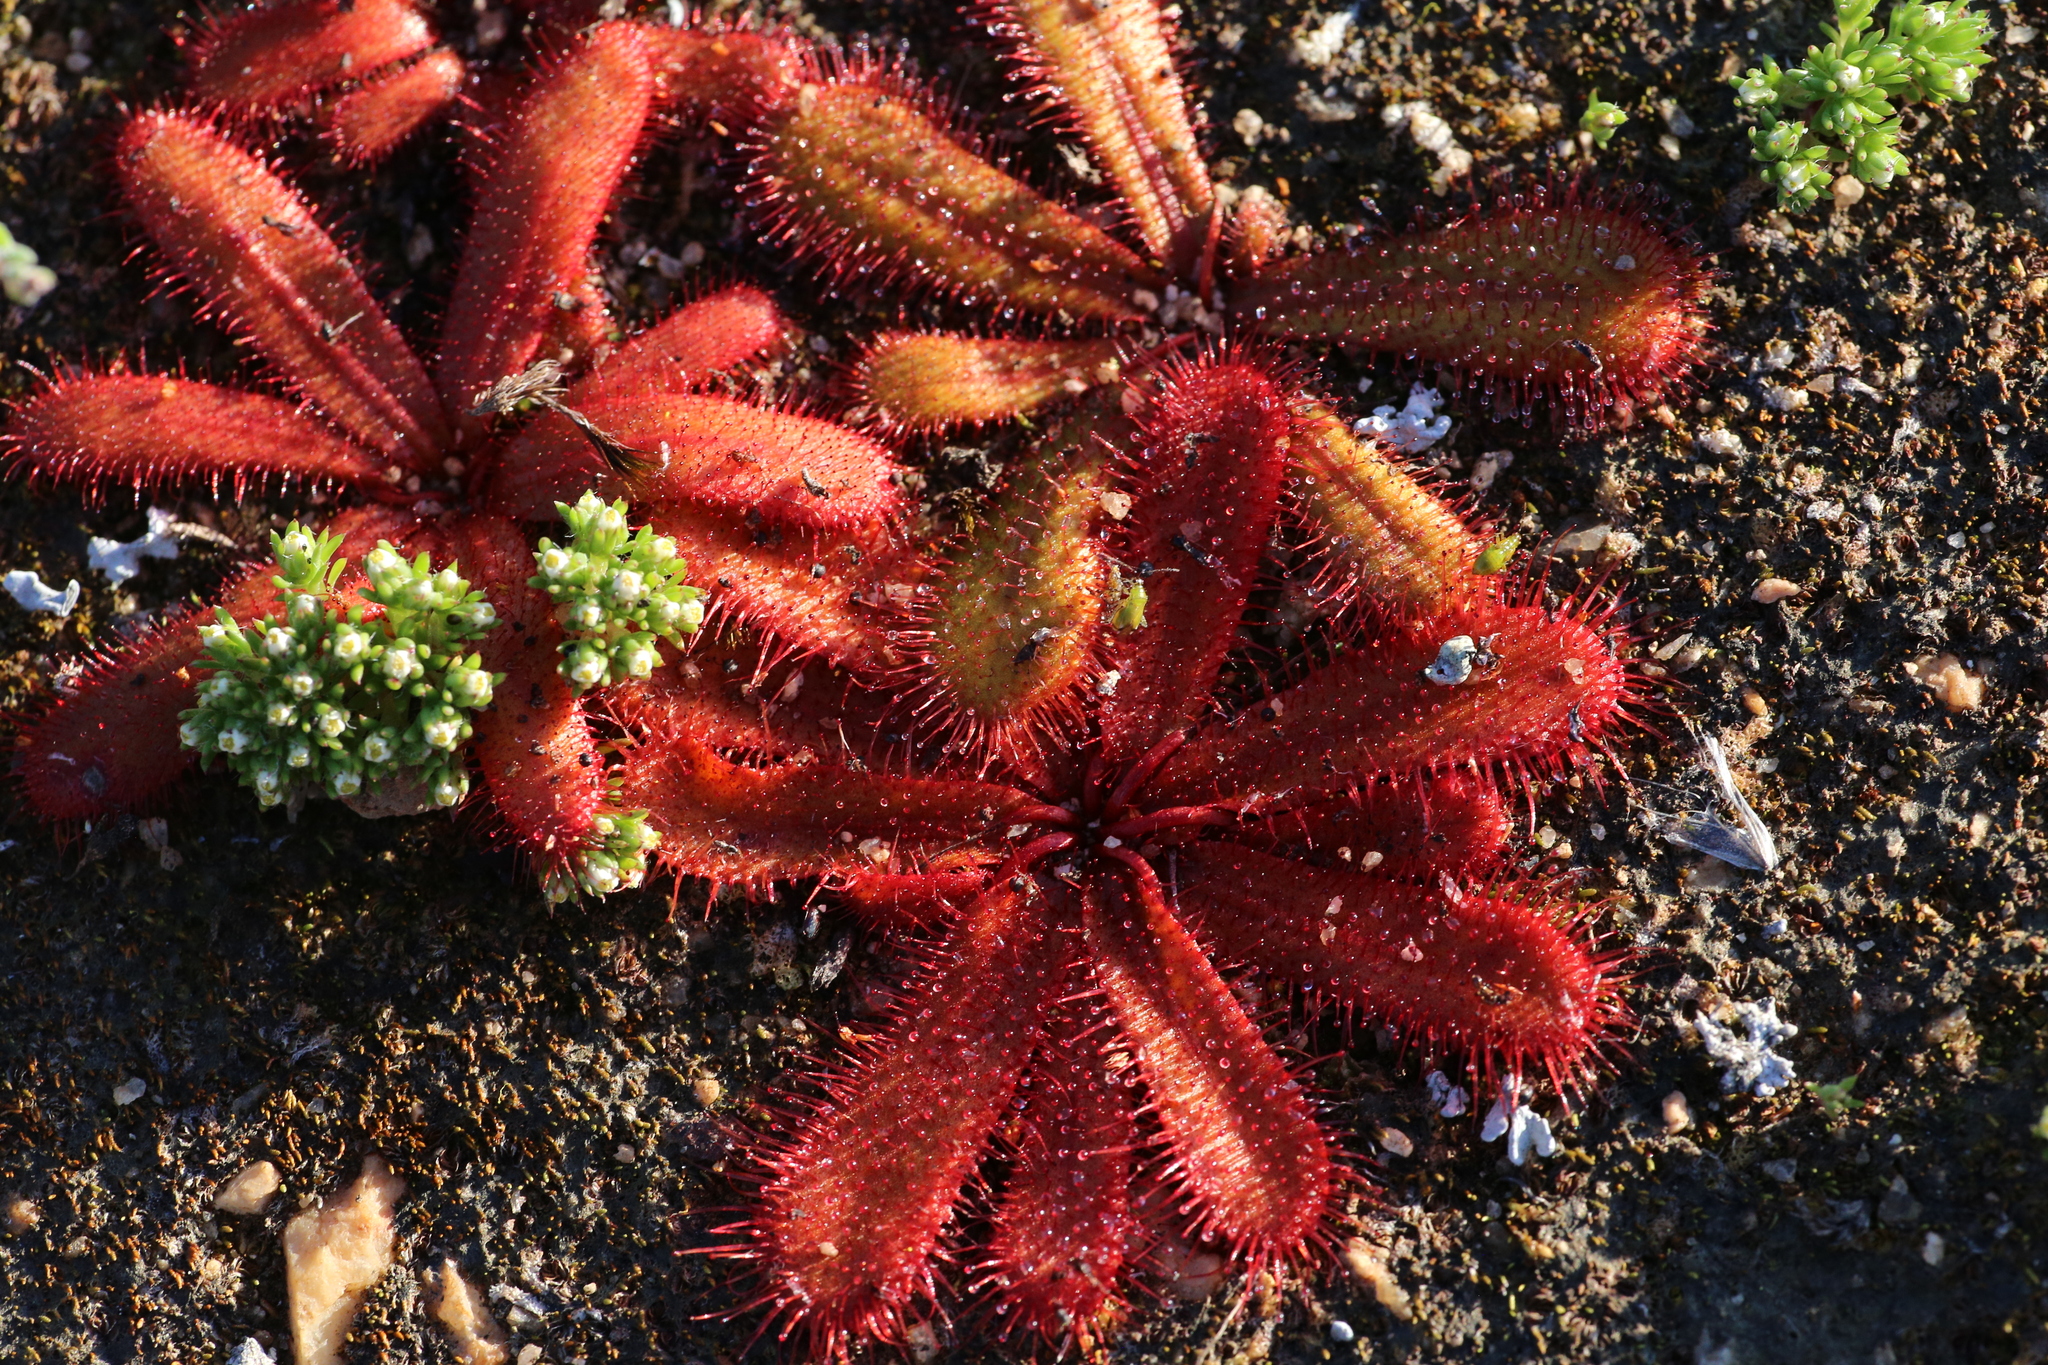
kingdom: Plantae
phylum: Tracheophyta
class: Magnoliopsida
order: Caryophyllales
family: Droseraceae
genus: Drosera
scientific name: Drosera bulbosa
